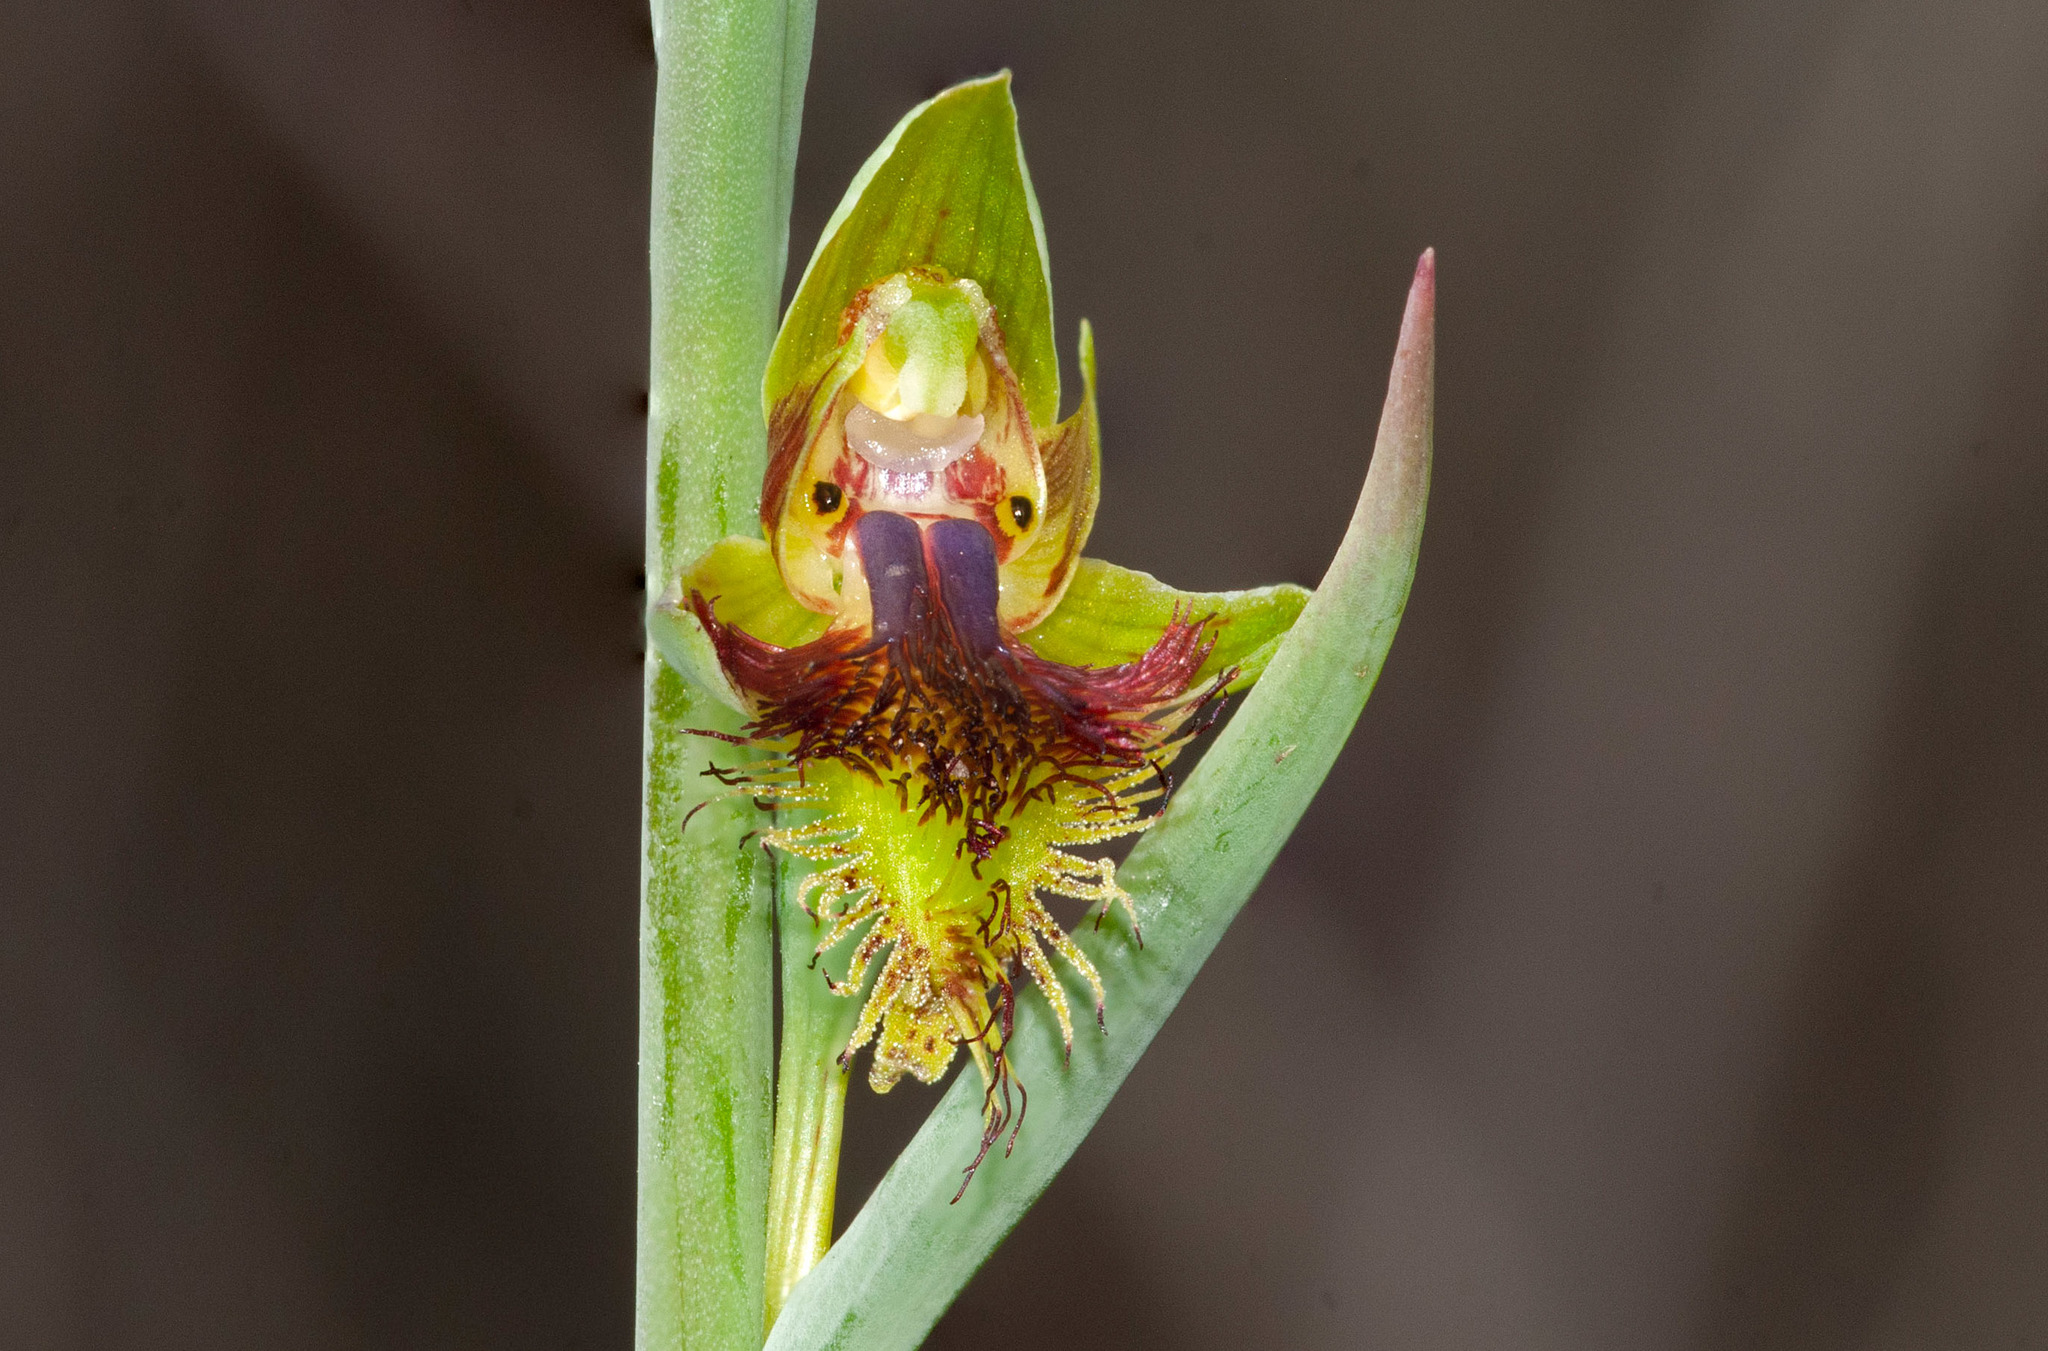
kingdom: Plantae
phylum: Tracheophyta
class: Liliopsida
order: Asparagales
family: Orchidaceae
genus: Calochilus
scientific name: Calochilus campestris
